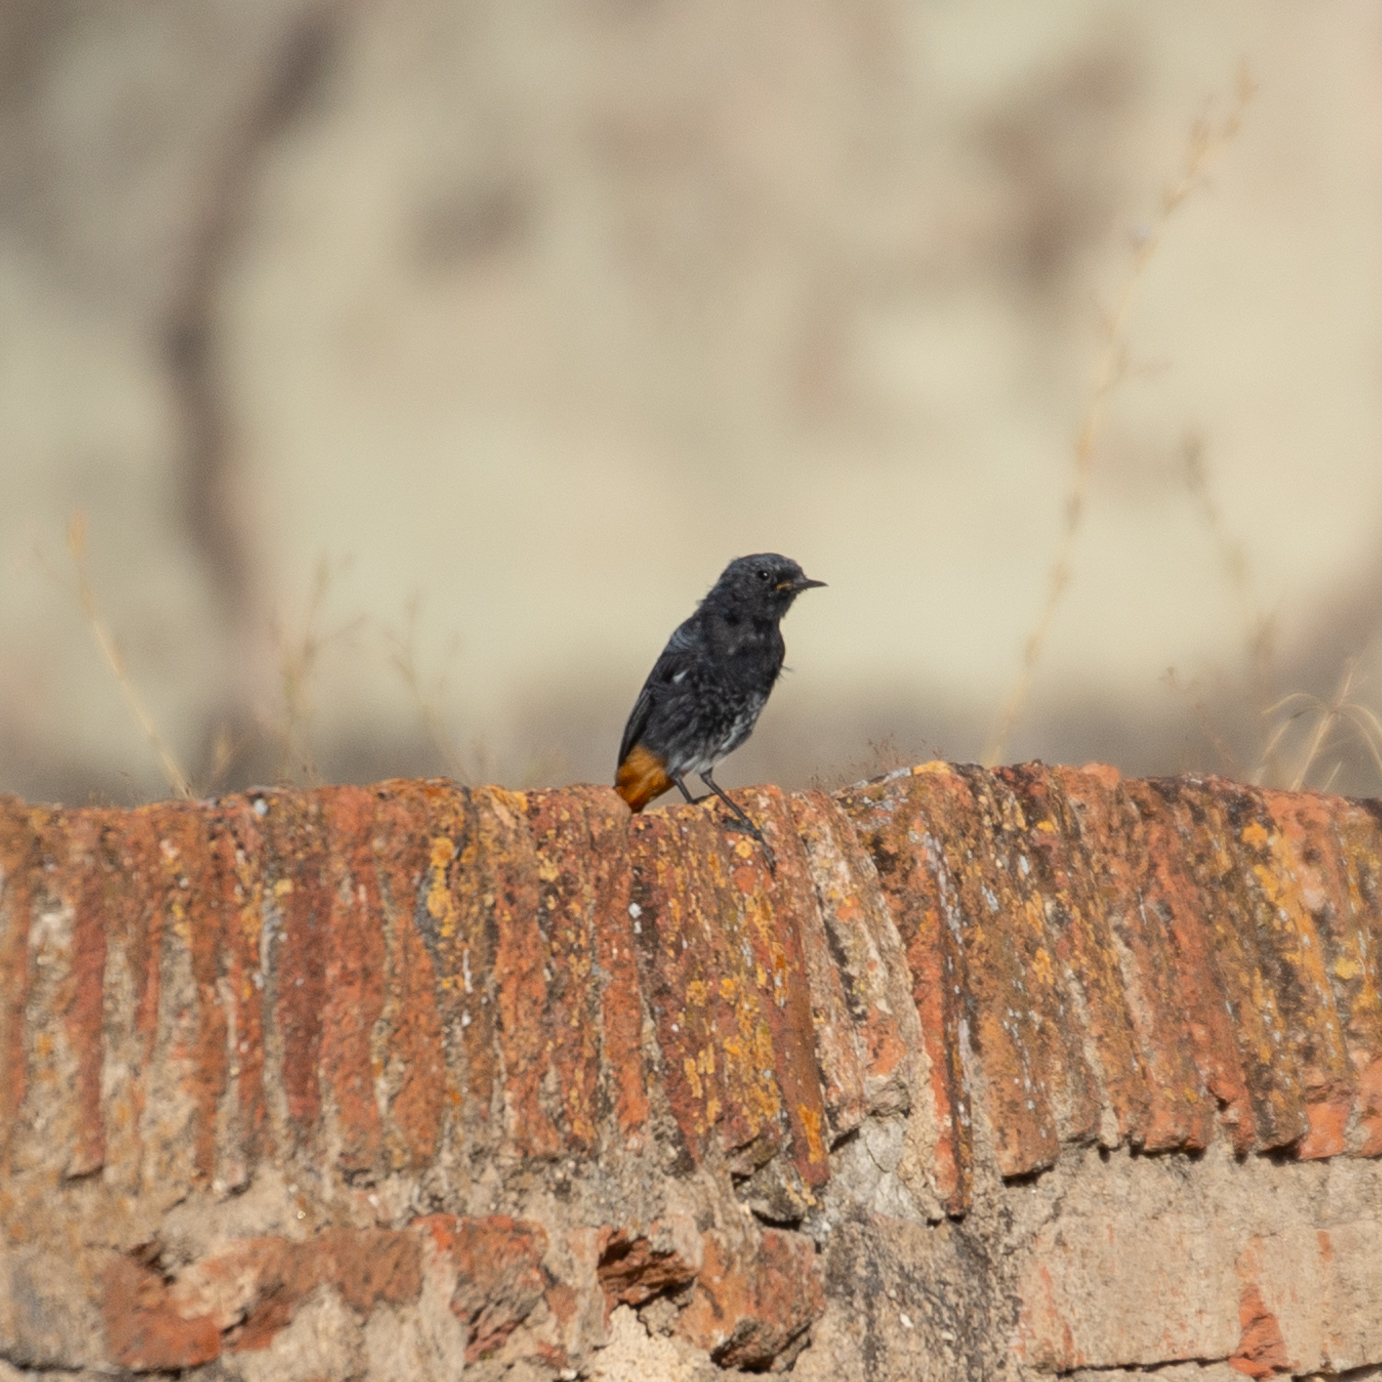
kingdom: Animalia
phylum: Chordata
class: Aves
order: Passeriformes
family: Muscicapidae
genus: Phoenicurus
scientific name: Phoenicurus ochruros
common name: Black redstart
